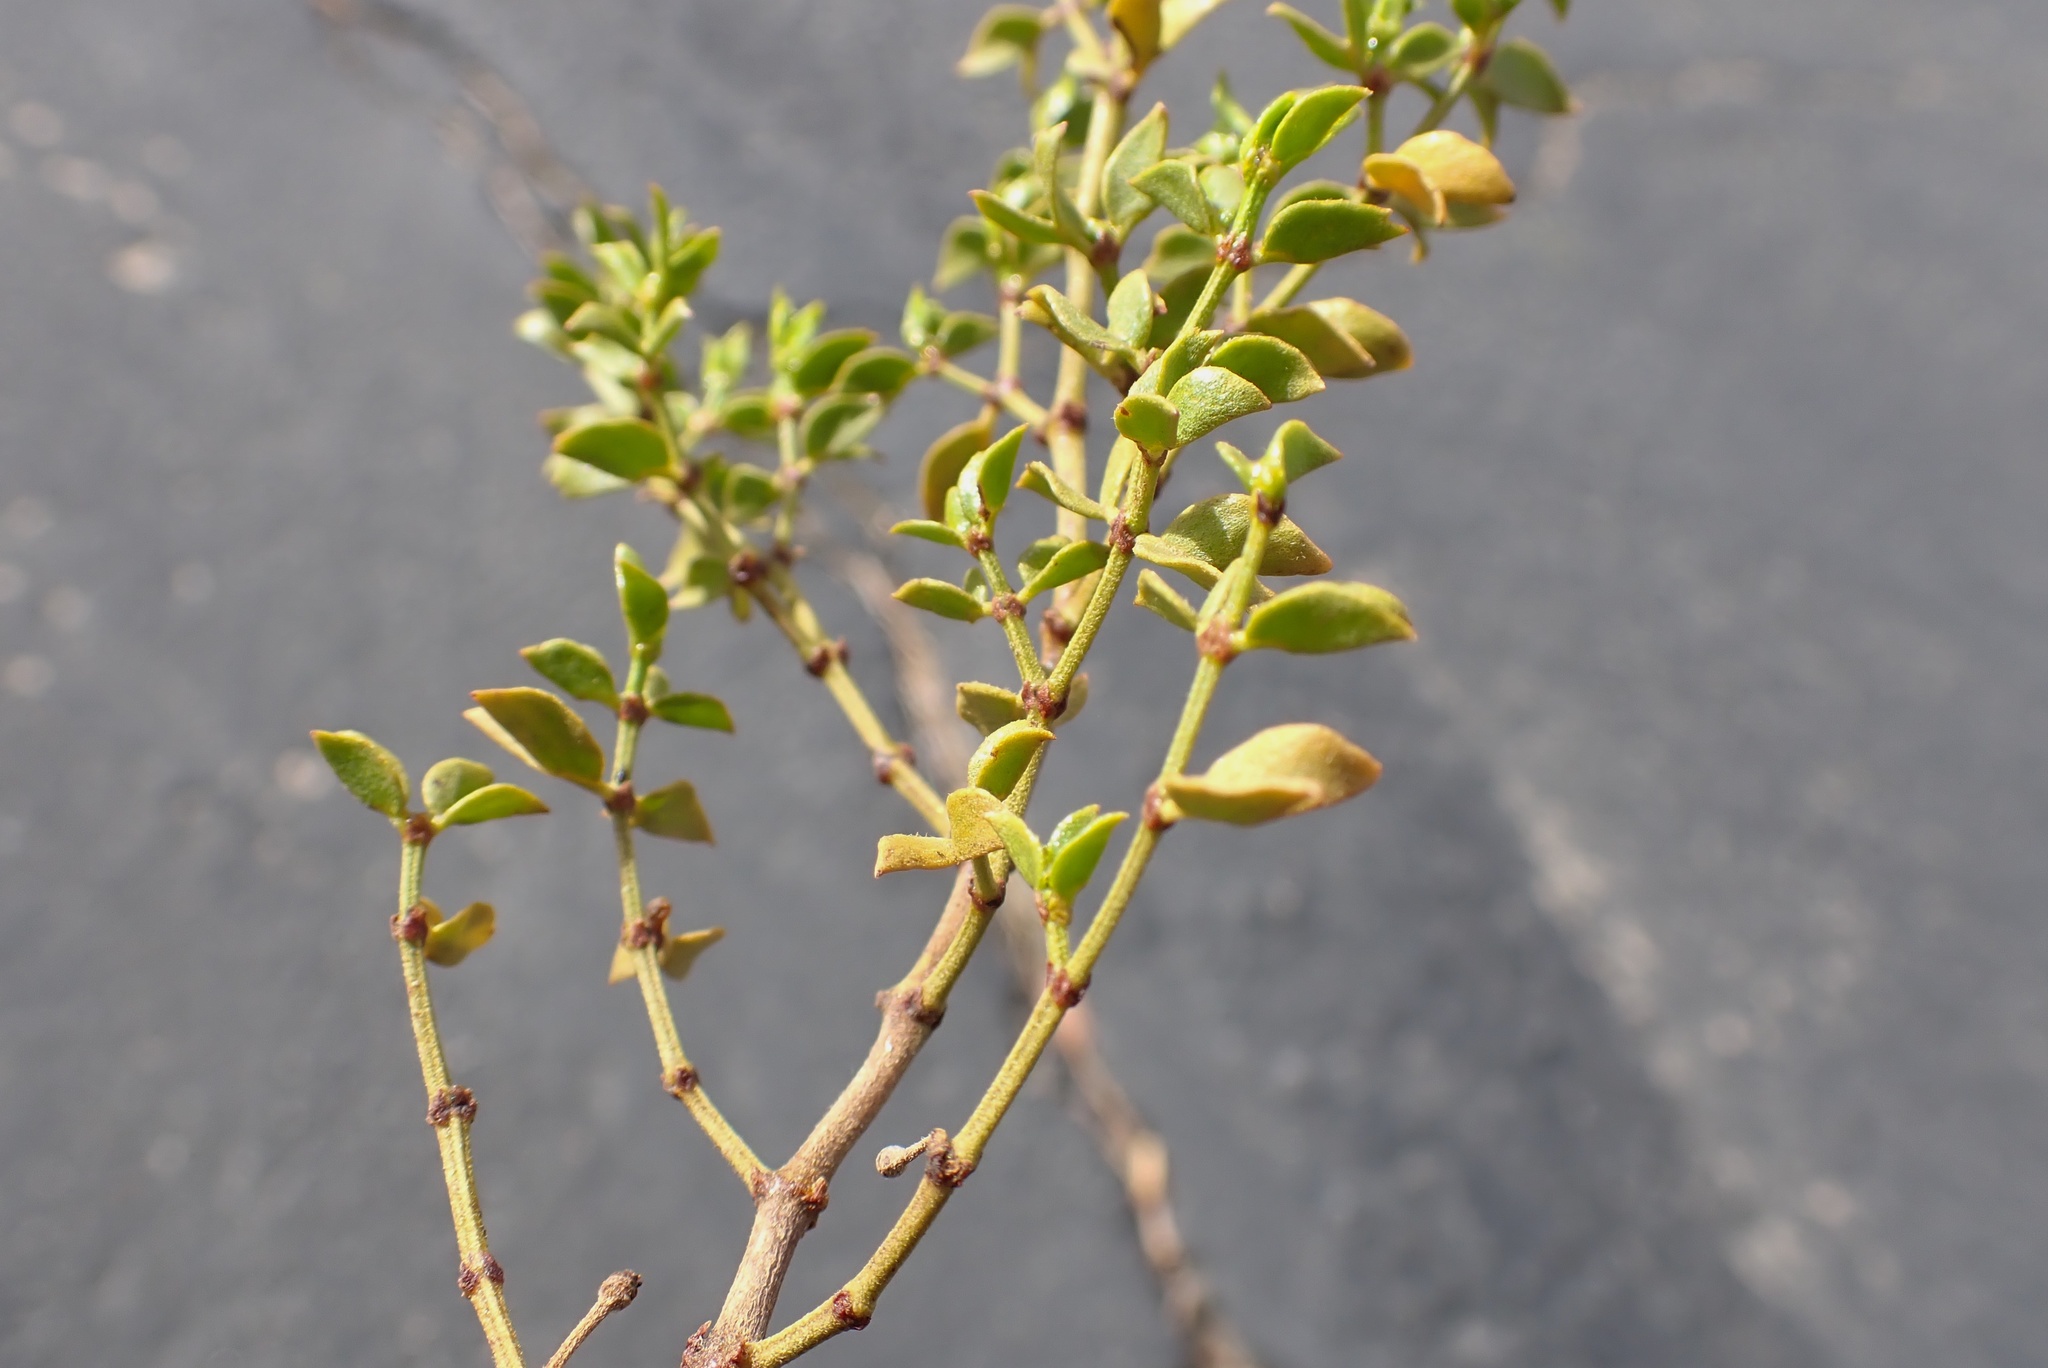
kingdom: Plantae
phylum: Tracheophyta
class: Magnoliopsida
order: Zygophyllales
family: Zygophyllaceae
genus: Larrea
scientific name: Larrea tridentata
